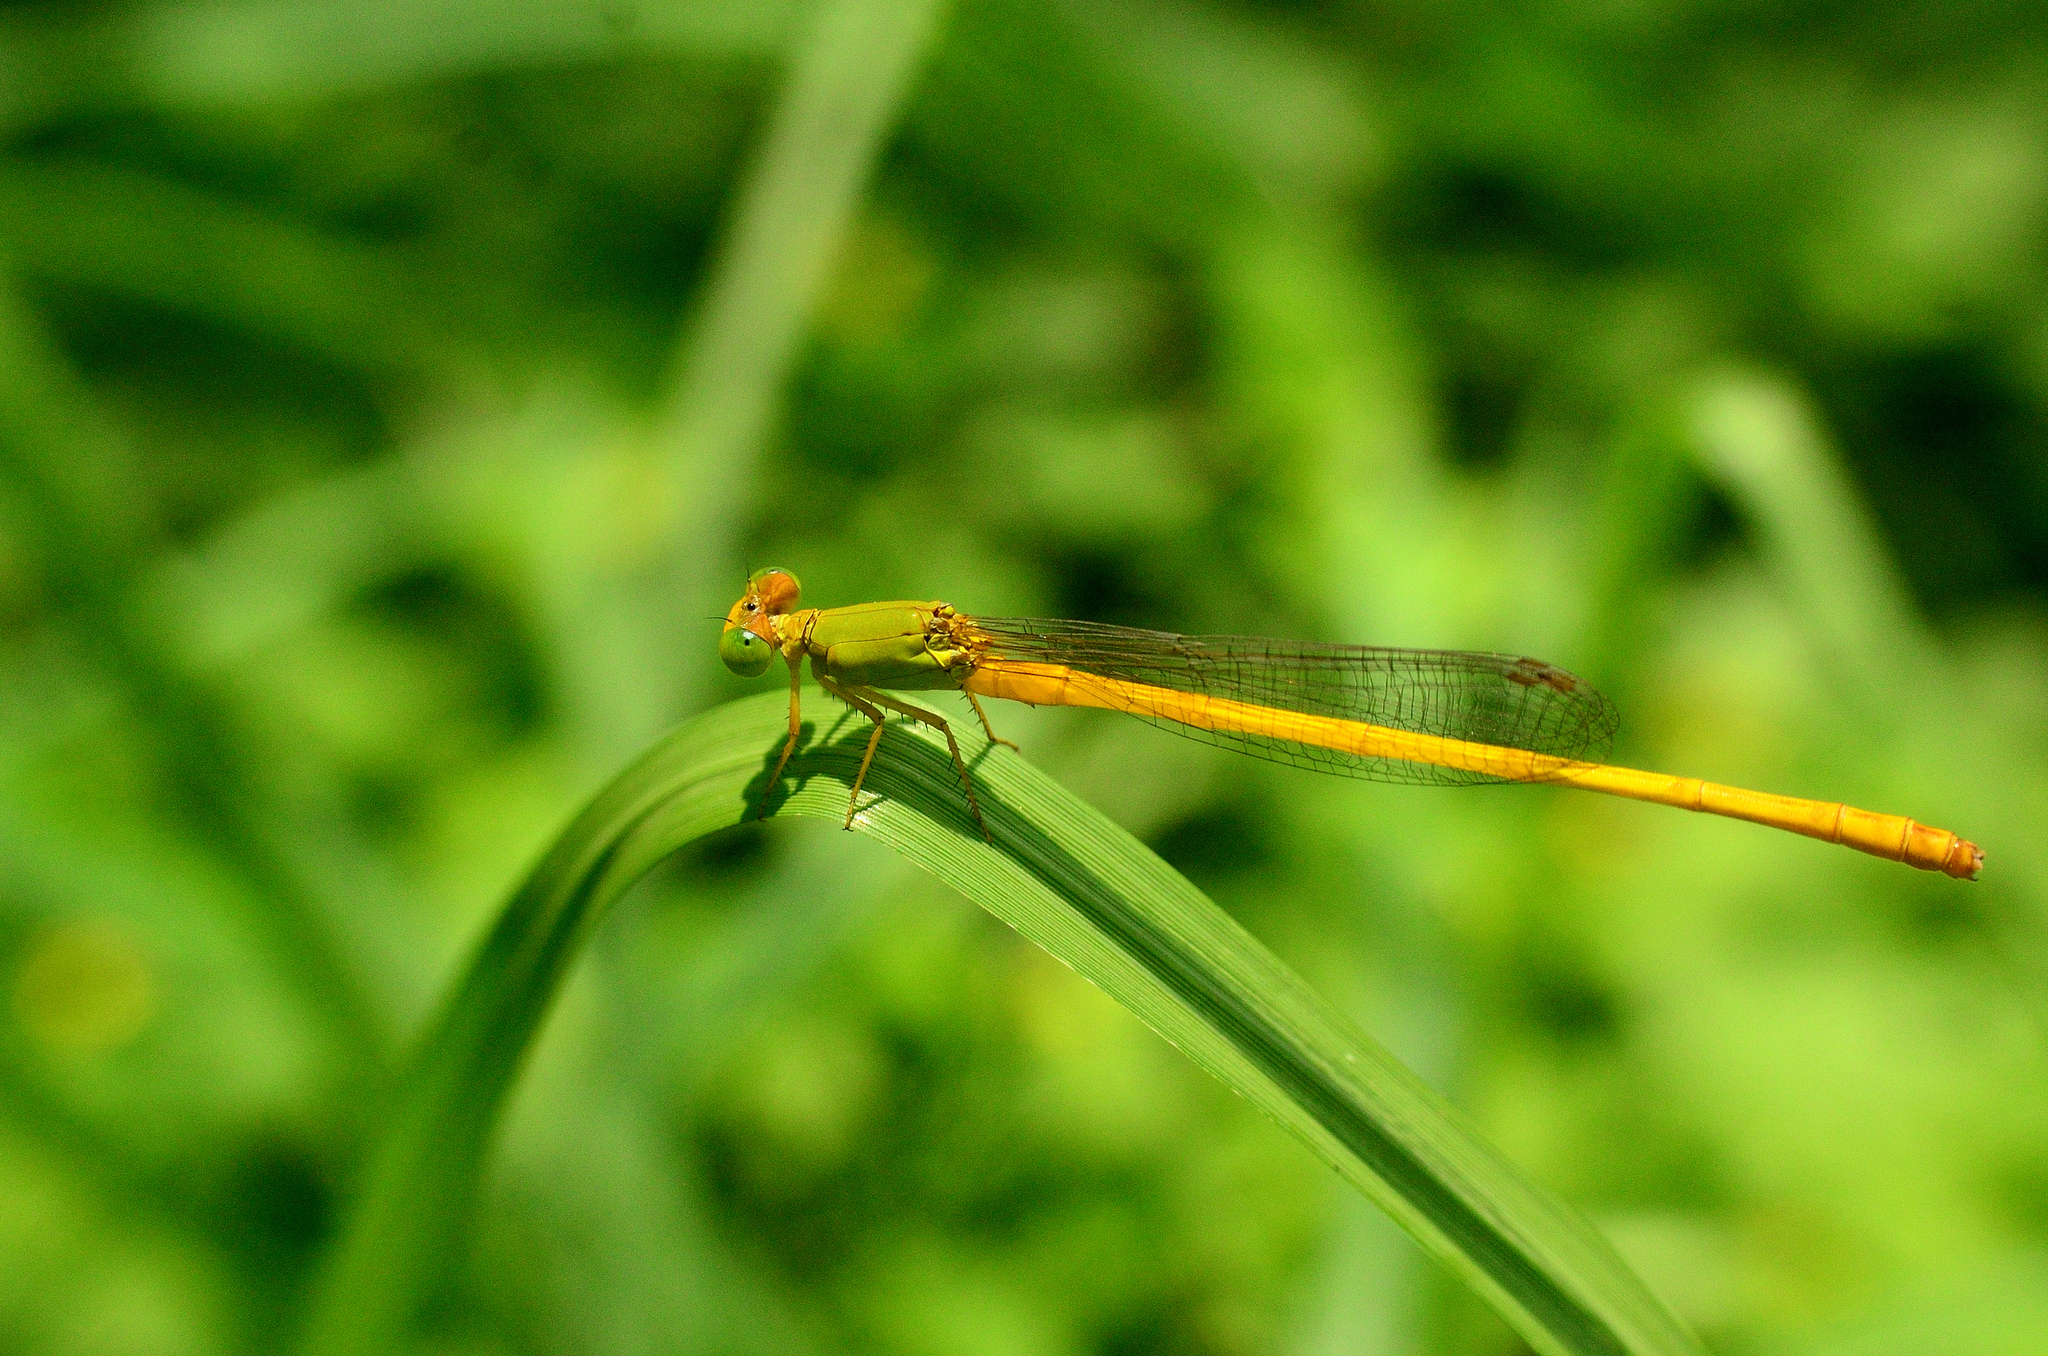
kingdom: Animalia
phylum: Arthropoda
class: Insecta
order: Odonata
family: Coenagrionidae
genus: Ceriagrion
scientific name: Ceriagrion coromandelianum
